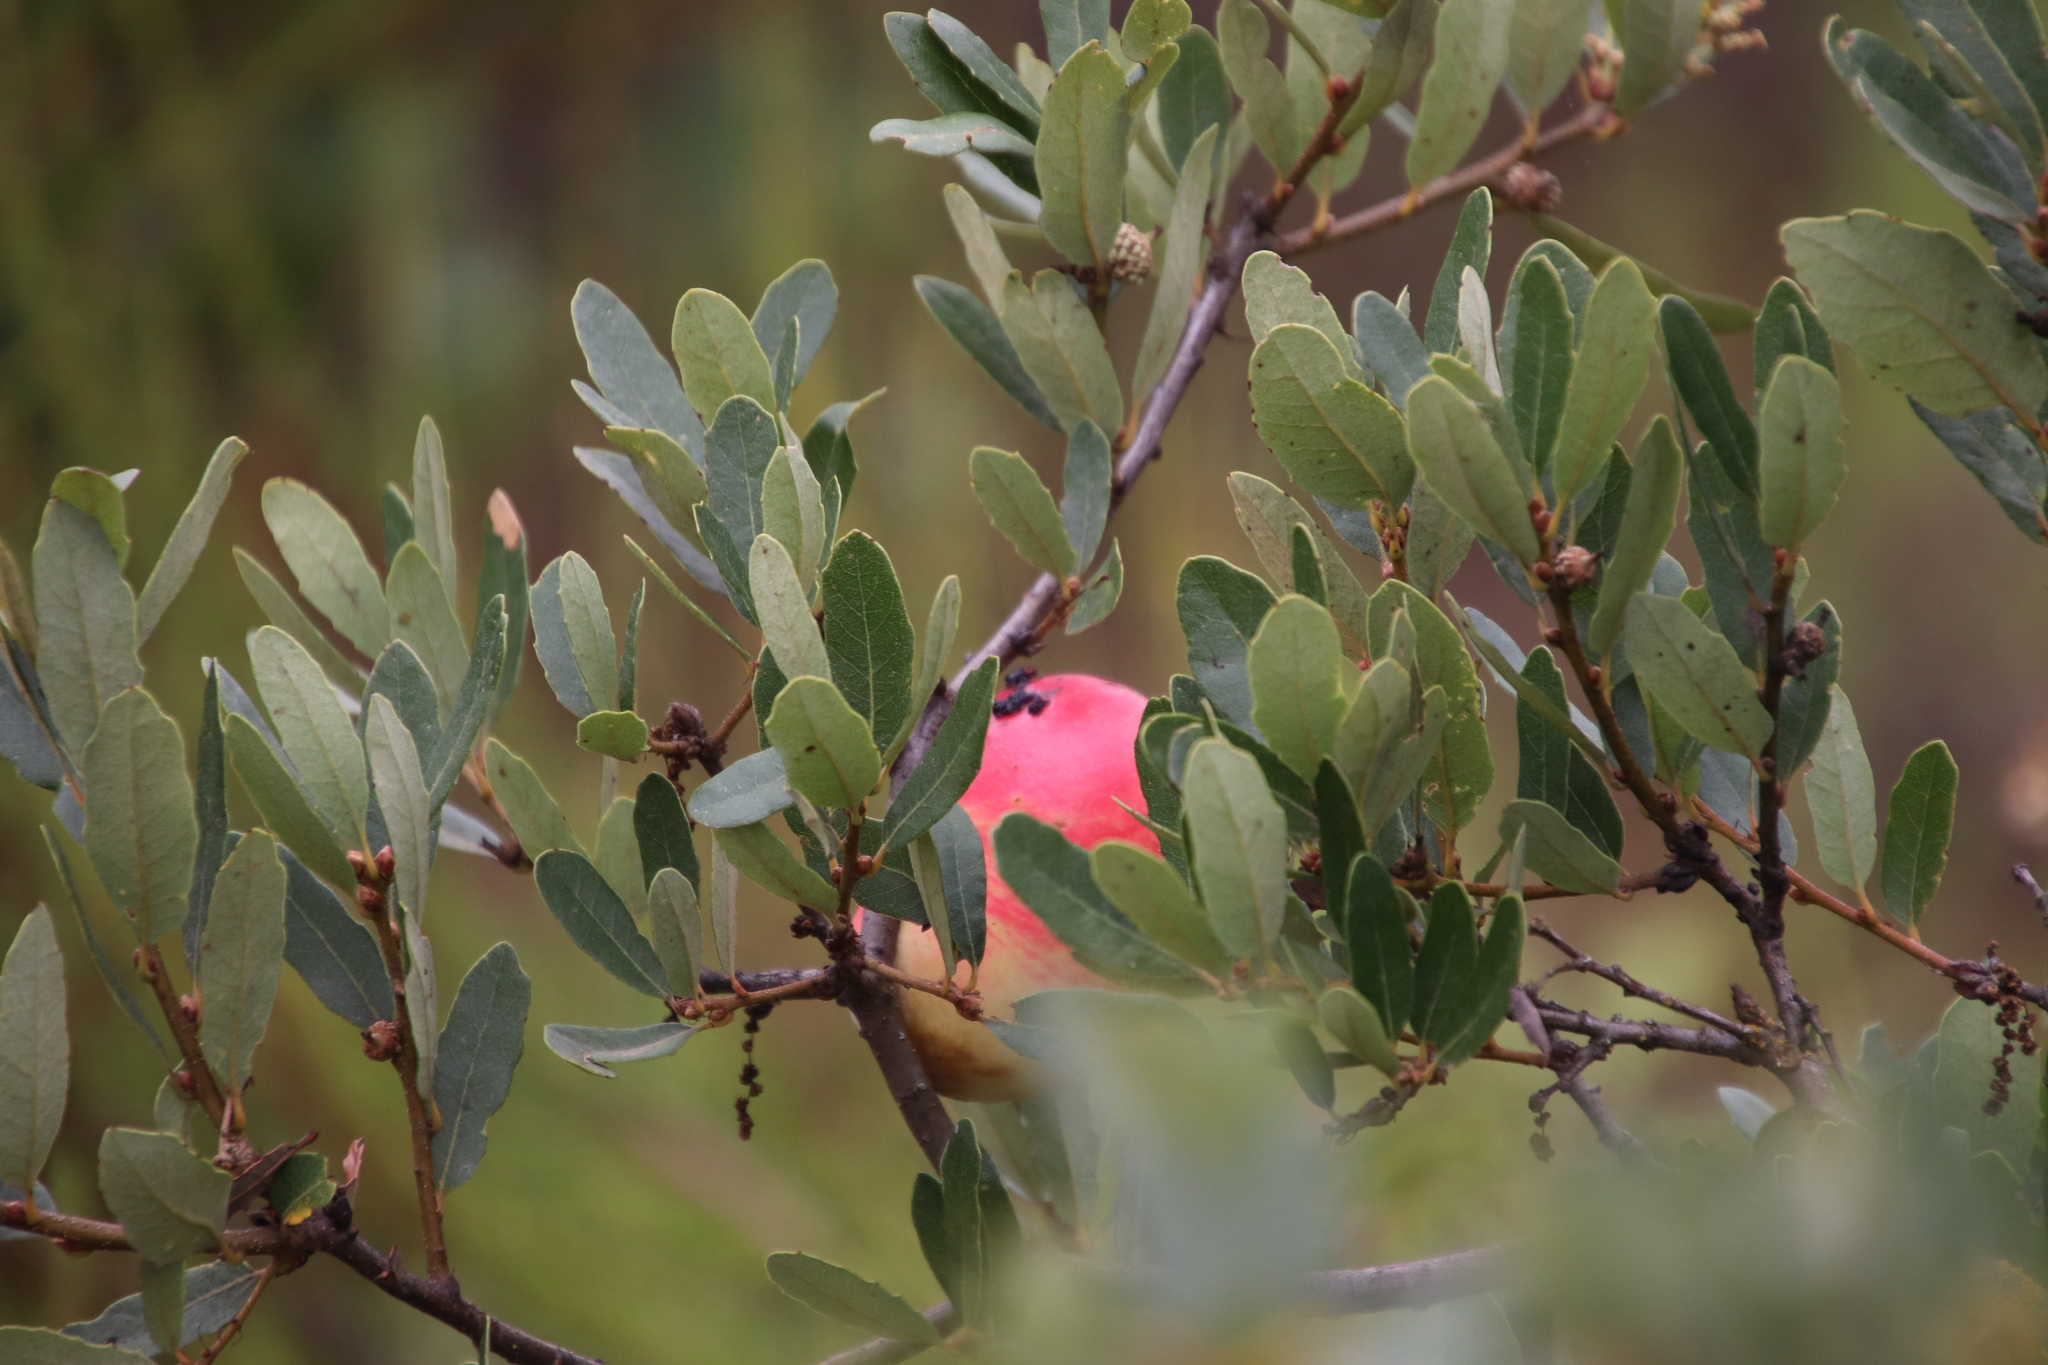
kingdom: Animalia
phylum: Arthropoda
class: Insecta
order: Hymenoptera
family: Cynipidae
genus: Andricus
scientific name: Andricus quercuscalifornicus
